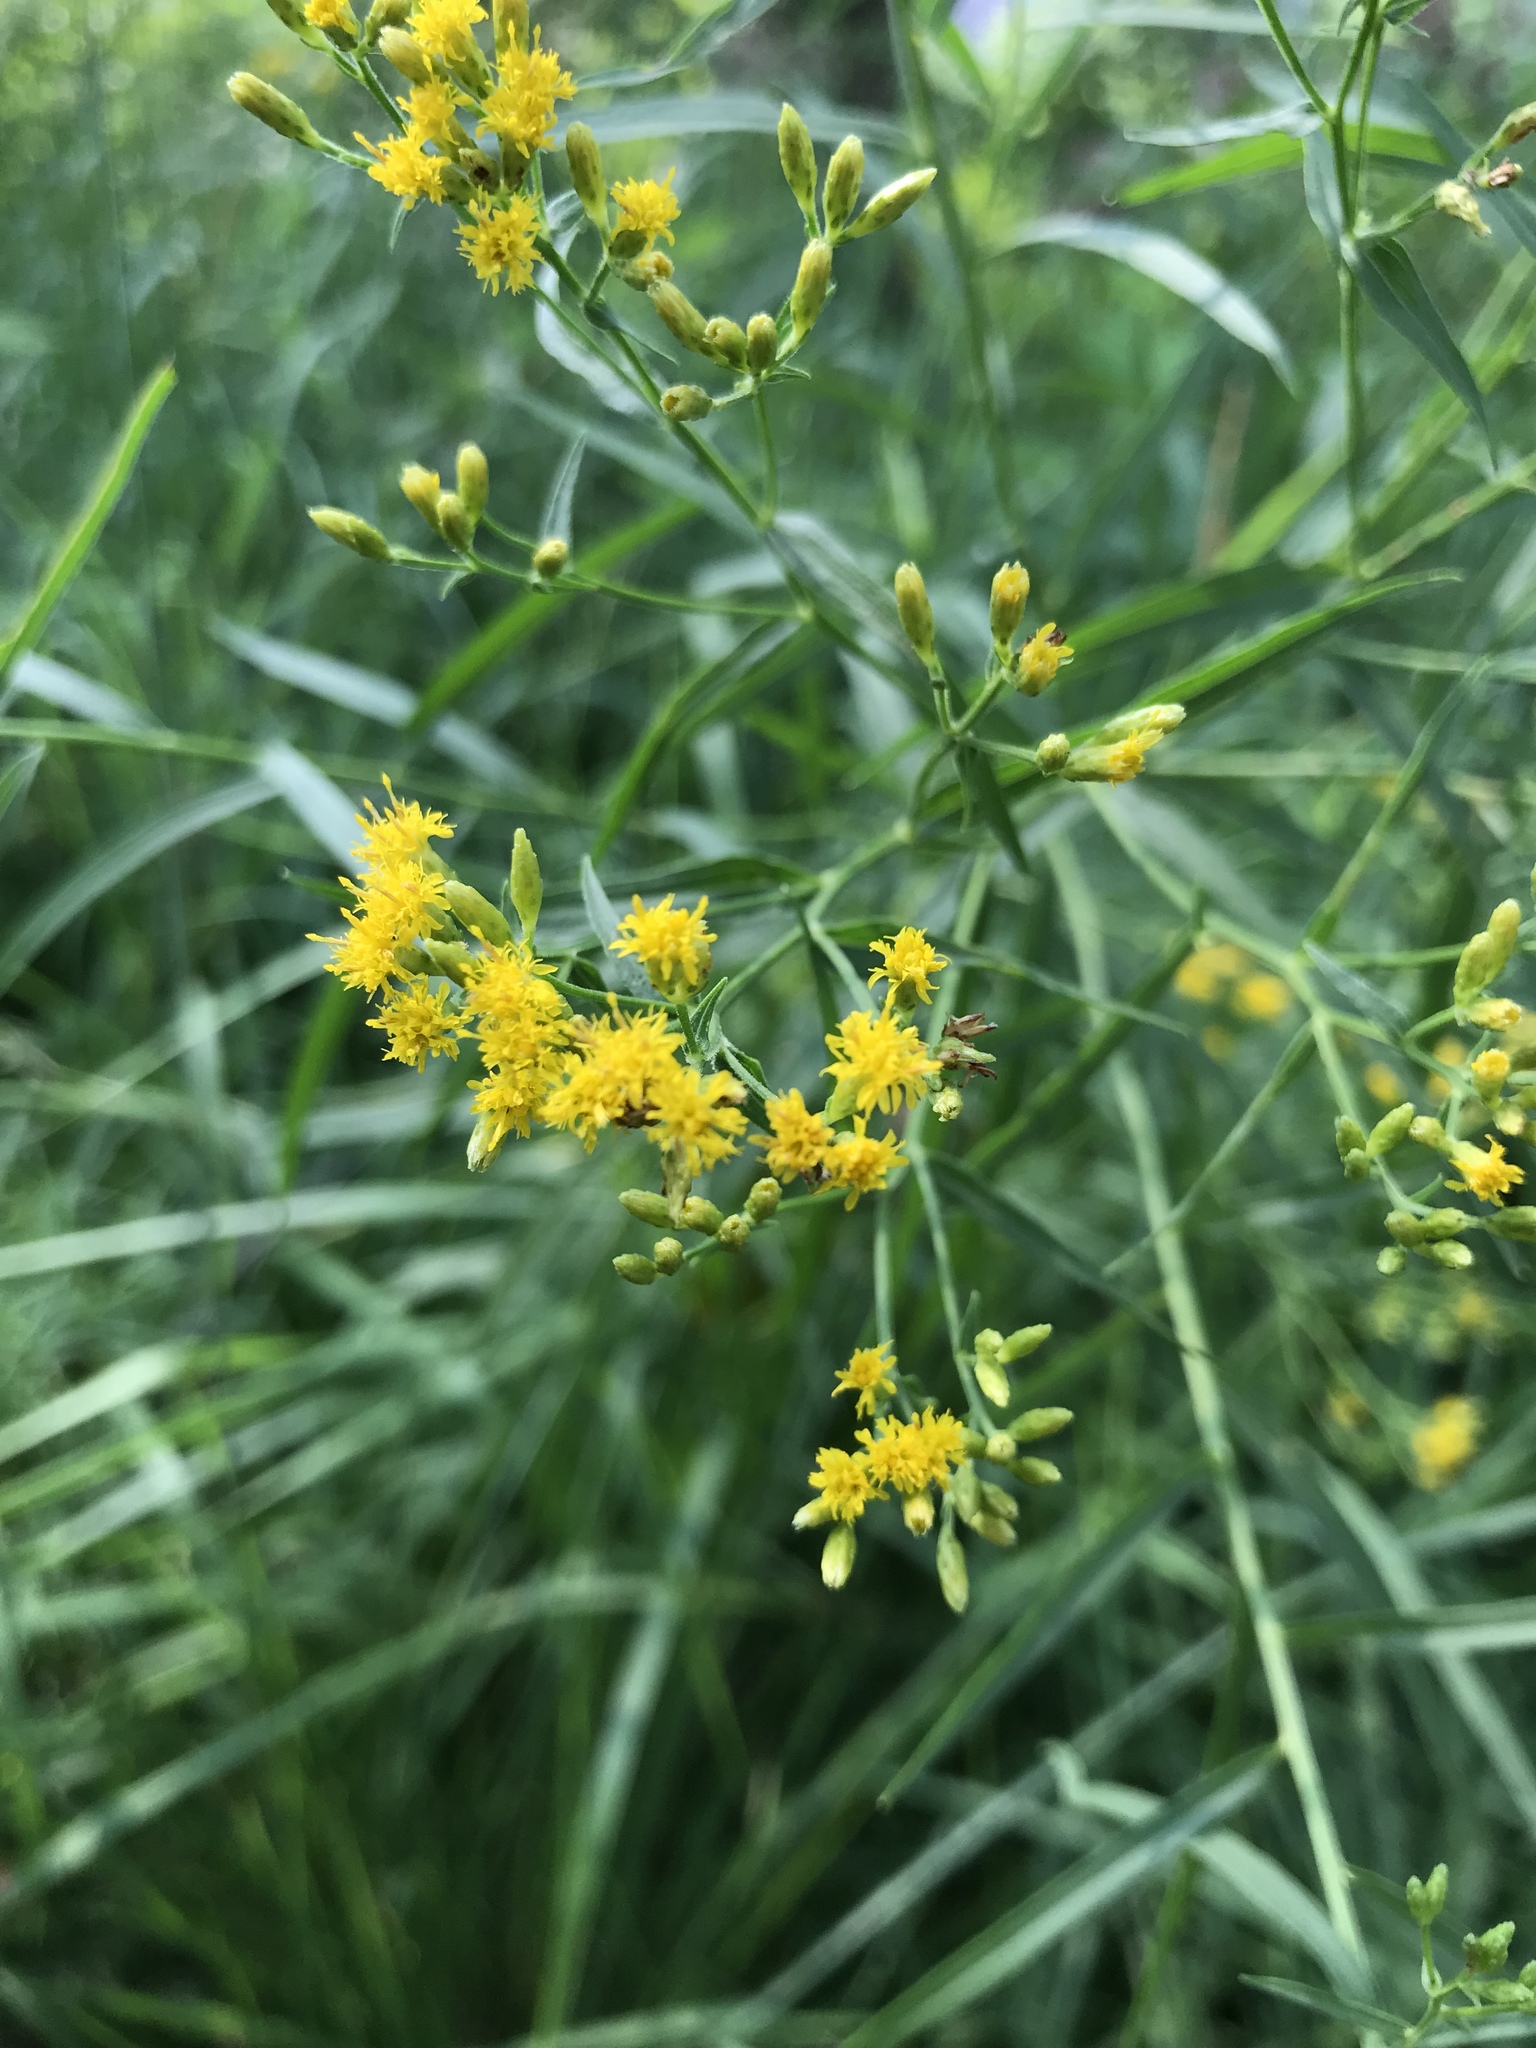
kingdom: Plantae
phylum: Tracheophyta
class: Magnoliopsida
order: Asterales
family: Asteraceae
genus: Euthamia
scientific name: Euthamia graminifolia
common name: Common goldentop
